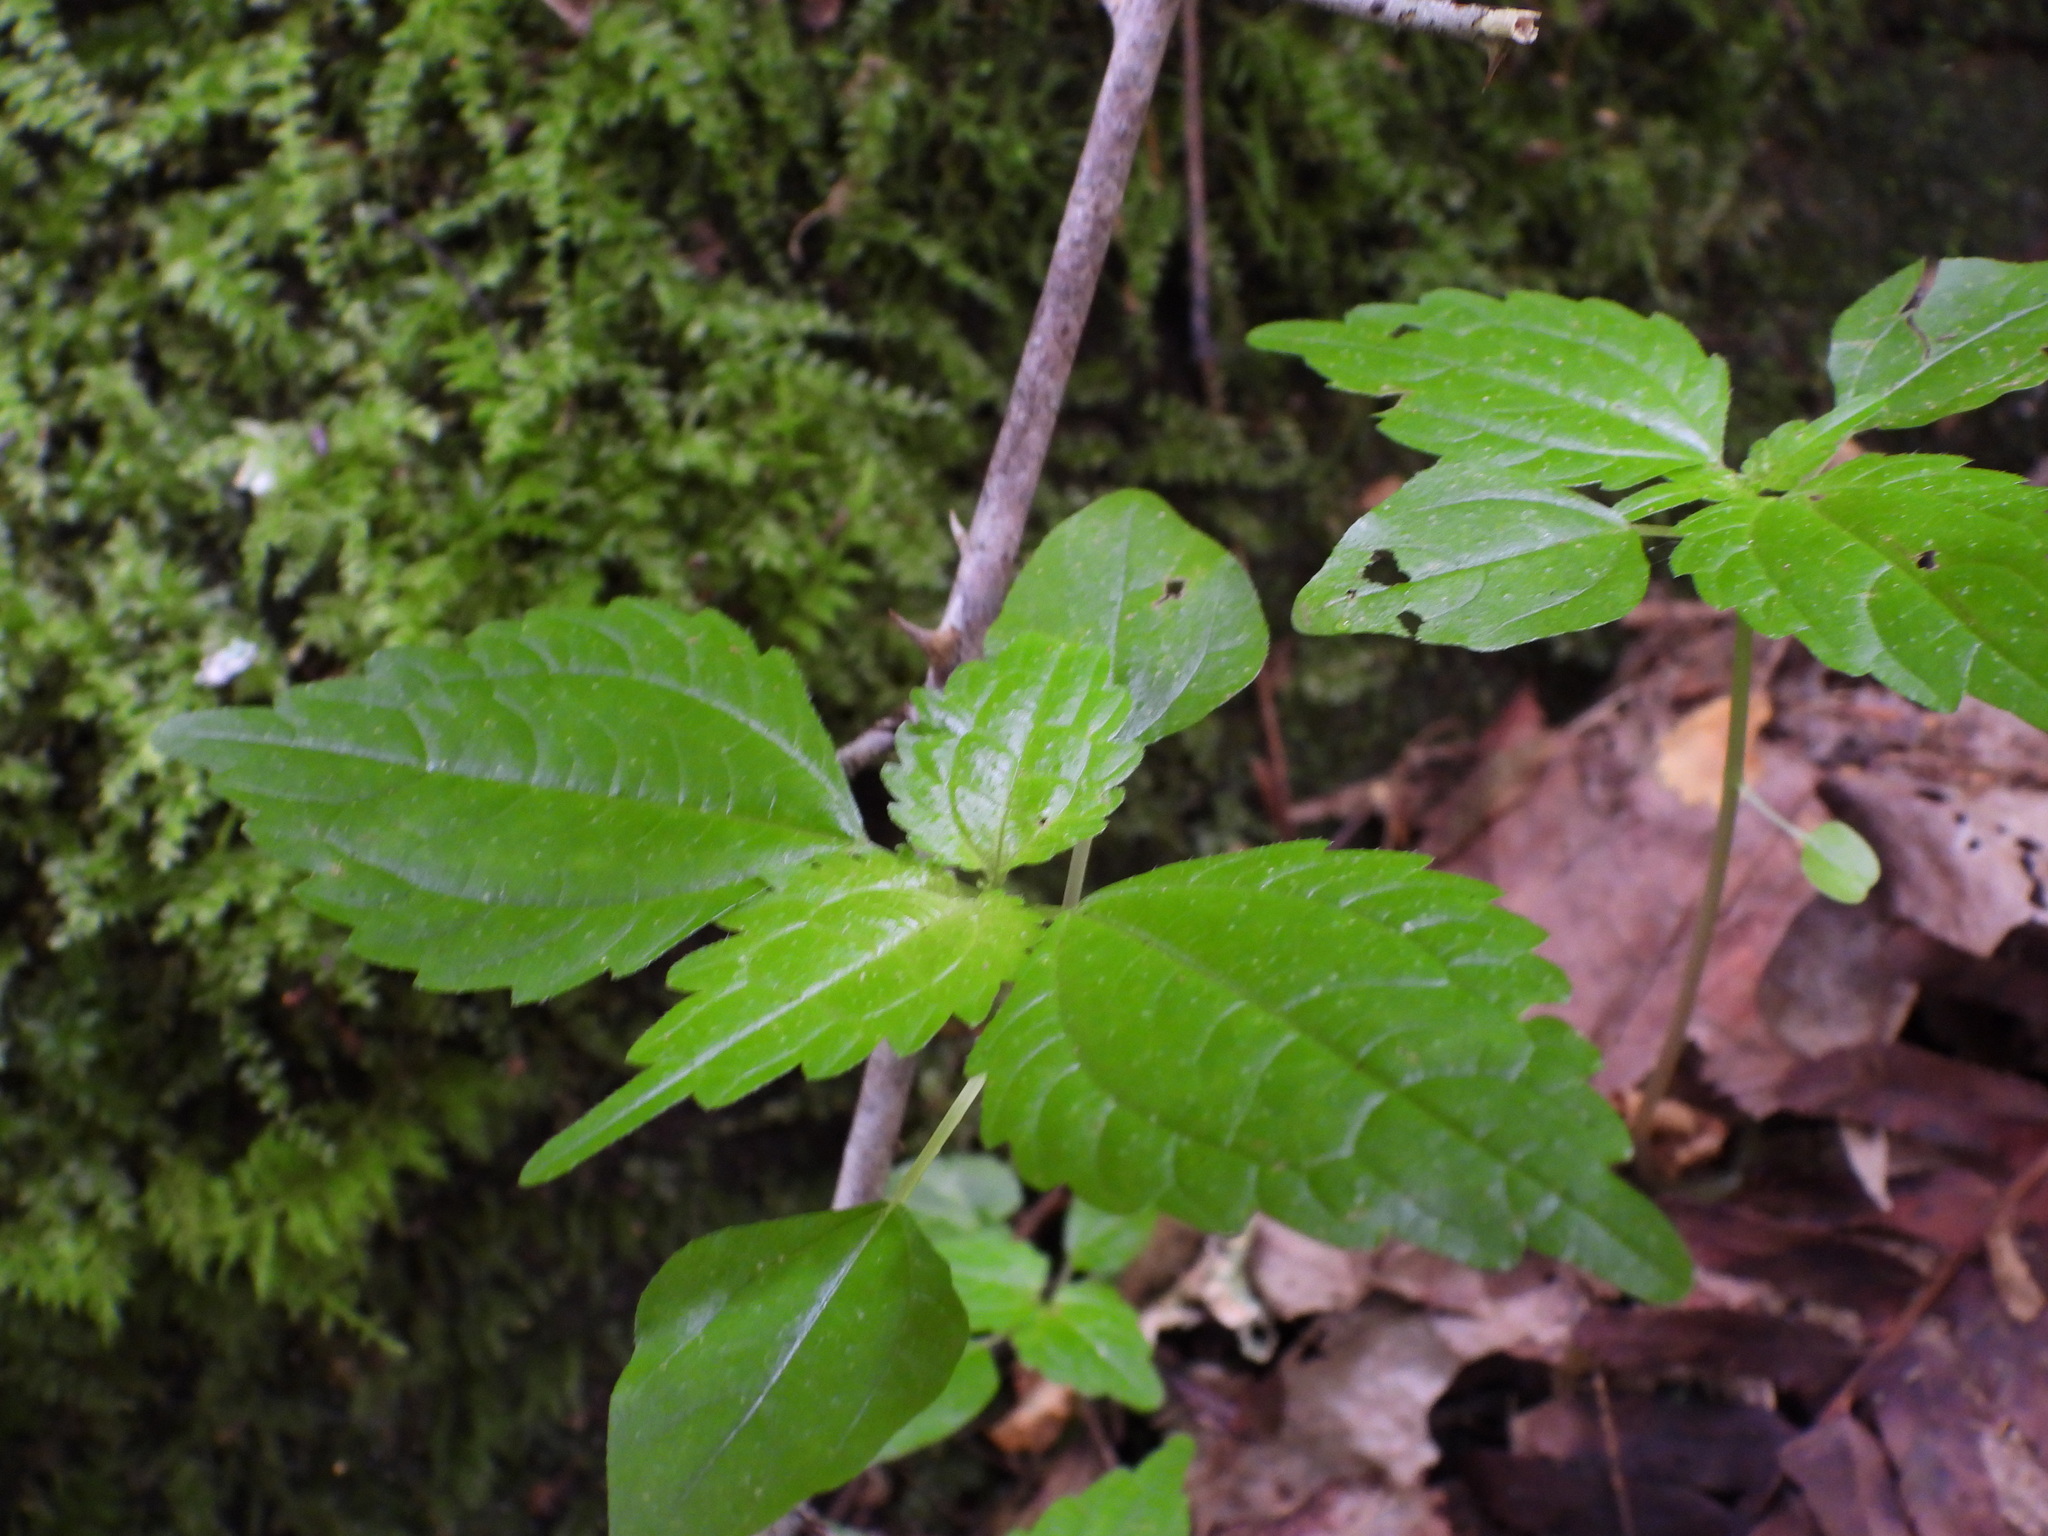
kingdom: Plantae
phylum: Tracheophyta
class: Magnoliopsida
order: Rosales
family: Urticaceae
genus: Pilea
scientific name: Pilea pumila
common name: Clearweed
